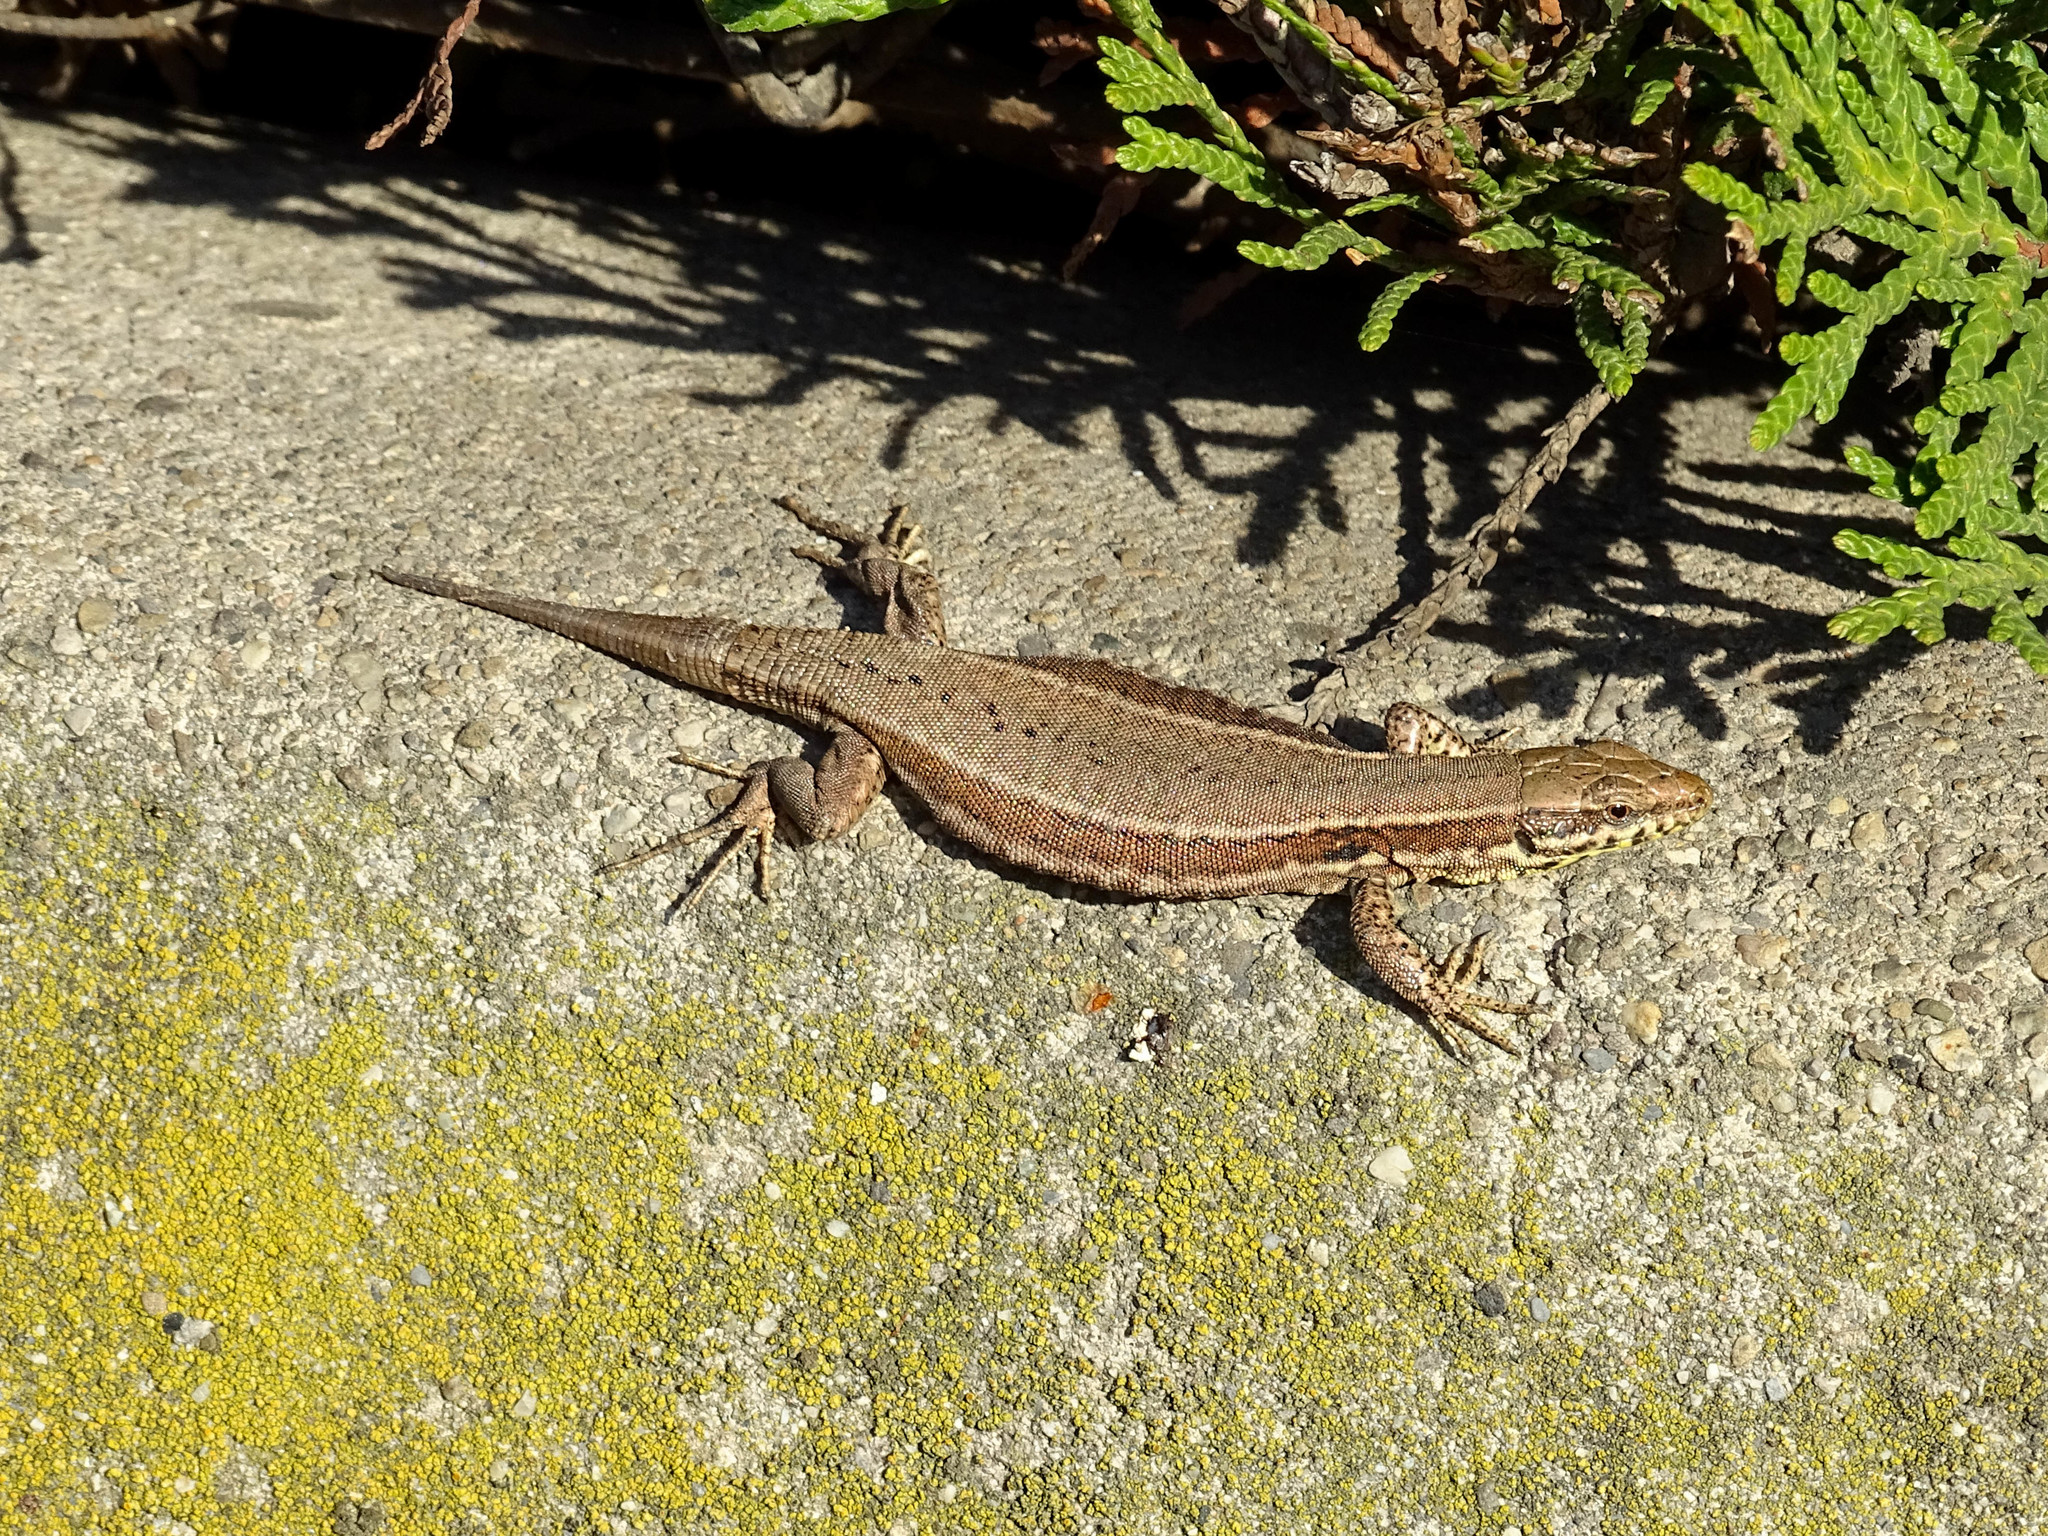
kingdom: Animalia
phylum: Chordata
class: Squamata
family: Lacertidae
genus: Podarcis
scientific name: Podarcis muralis
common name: Common wall lizard
